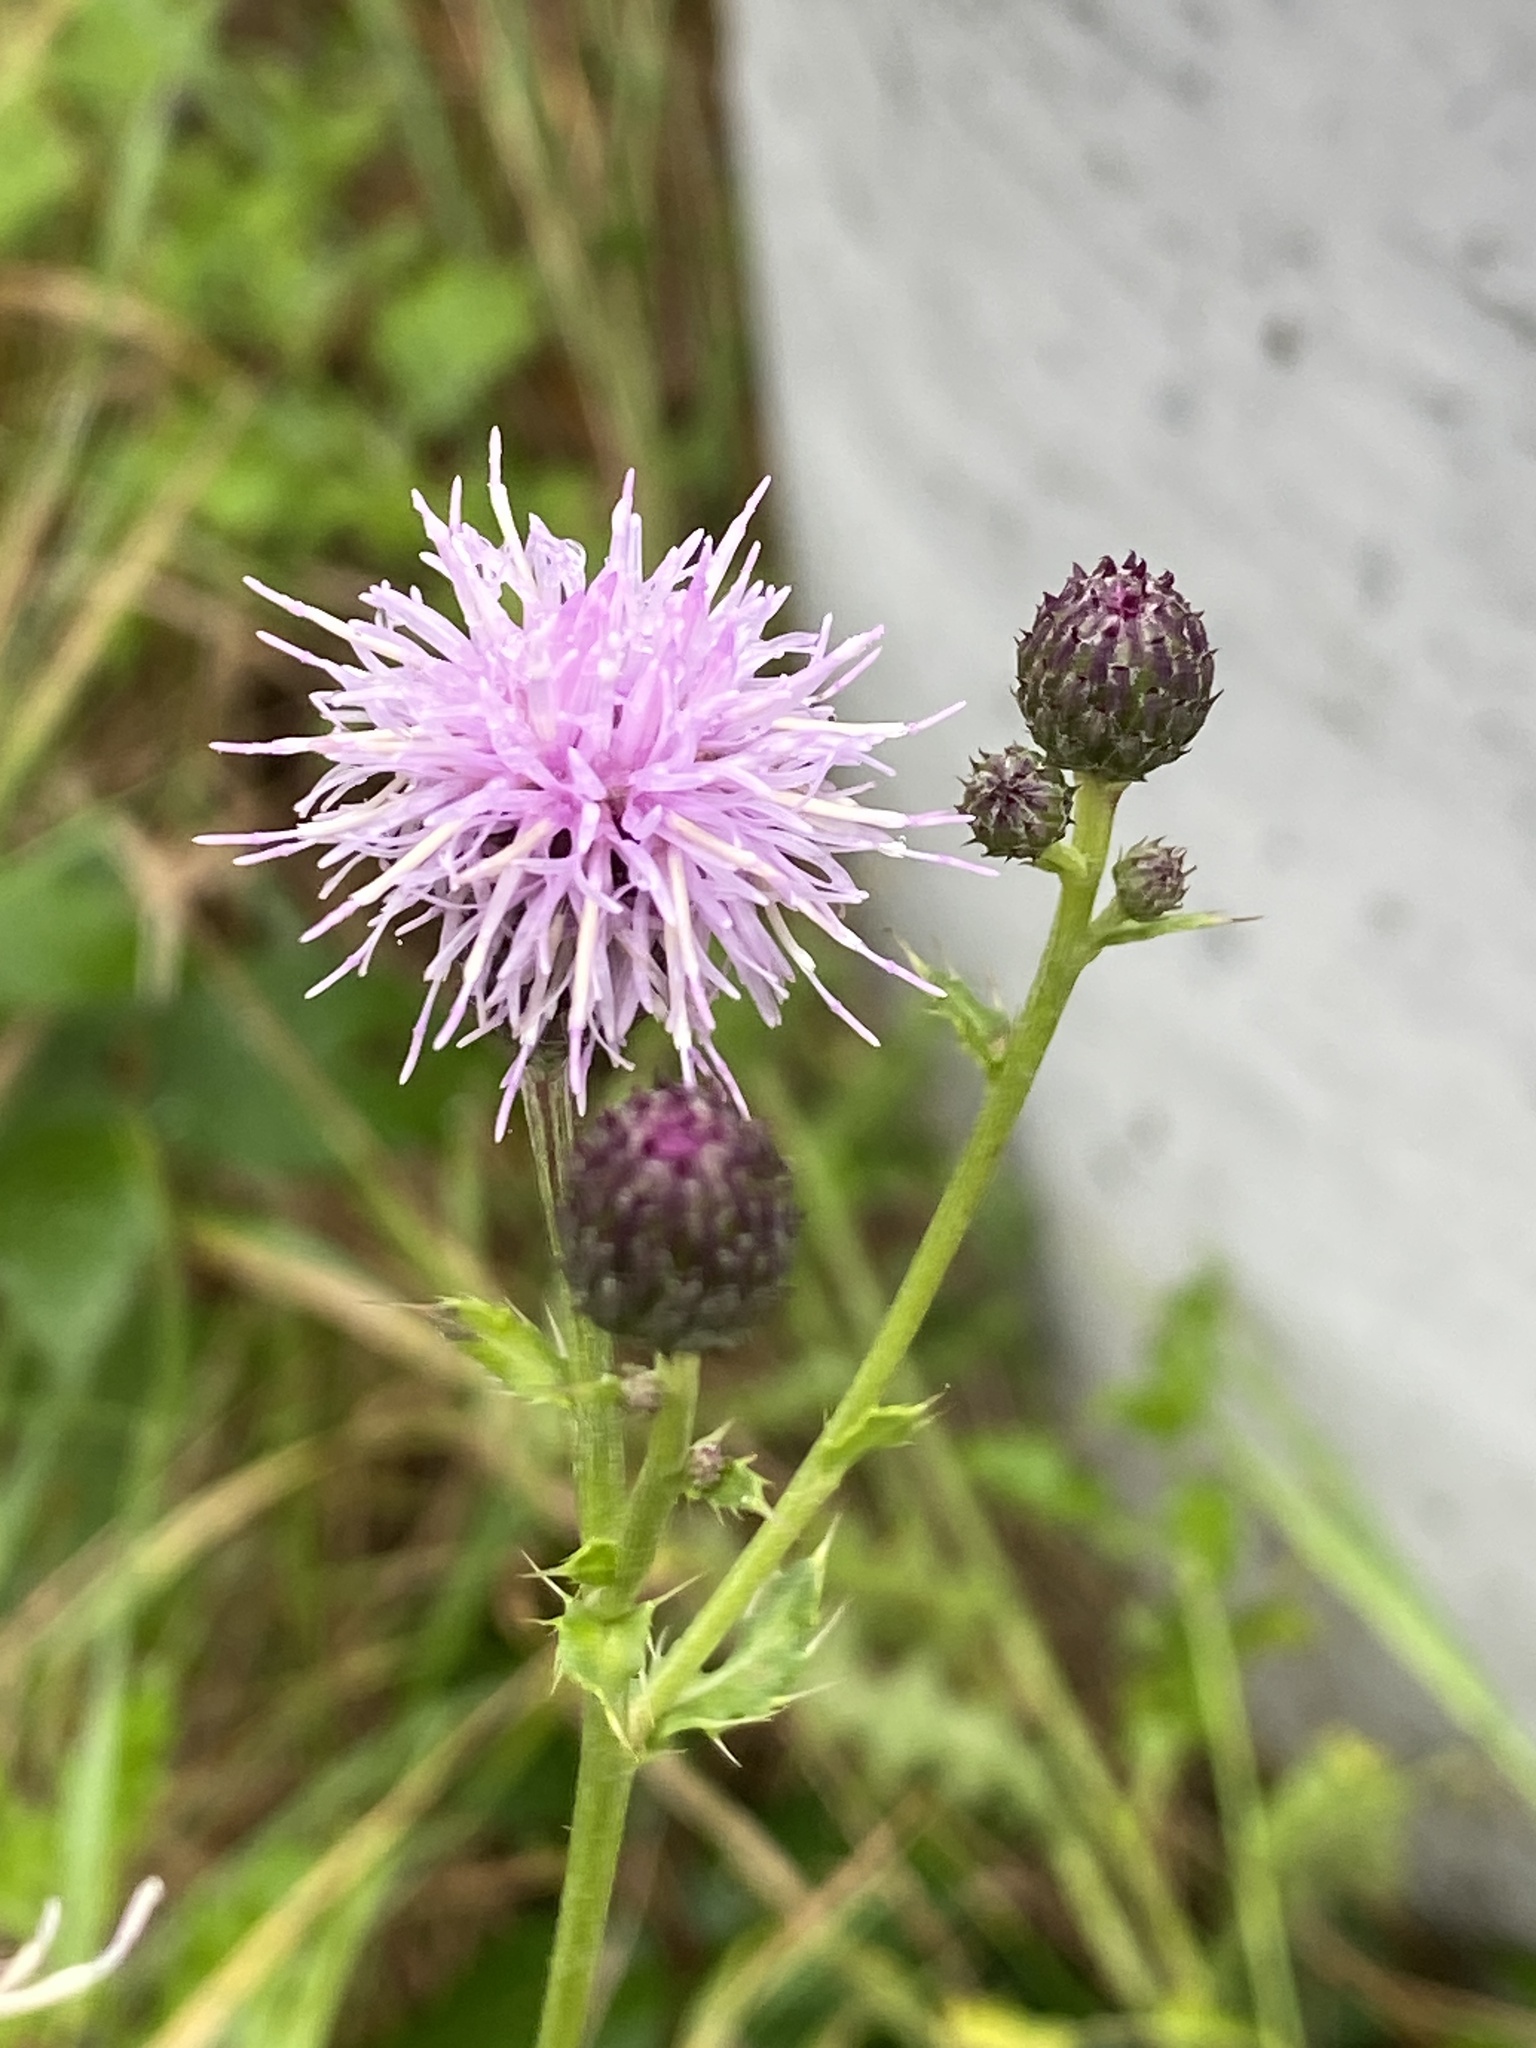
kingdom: Plantae
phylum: Tracheophyta
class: Magnoliopsida
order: Asterales
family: Asteraceae
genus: Cirsium
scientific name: Cirsium arvense
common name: Creeping thistle
